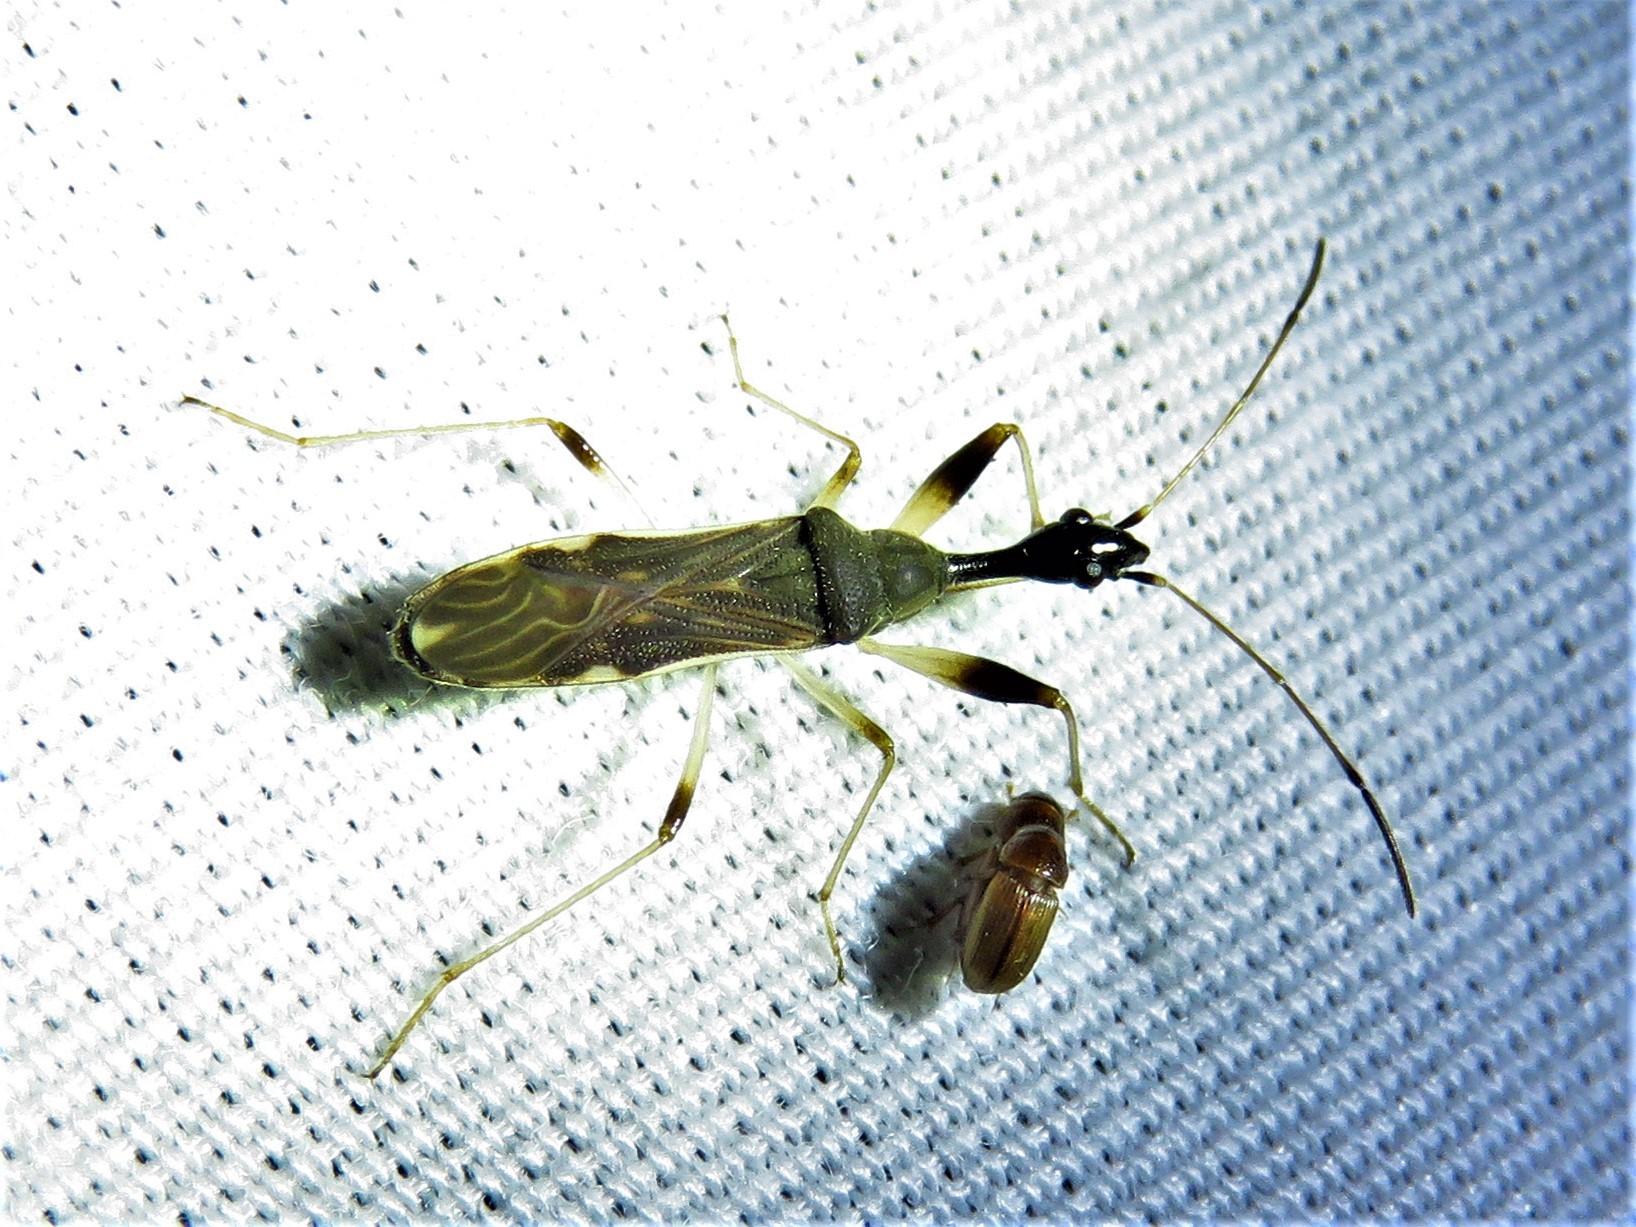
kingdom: Animalia
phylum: Arthropoda
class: Insecta
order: Hemiptera
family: Rhyparochromidae
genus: Myodocha
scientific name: Myodocha serripes
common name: Long-necked seed bug
